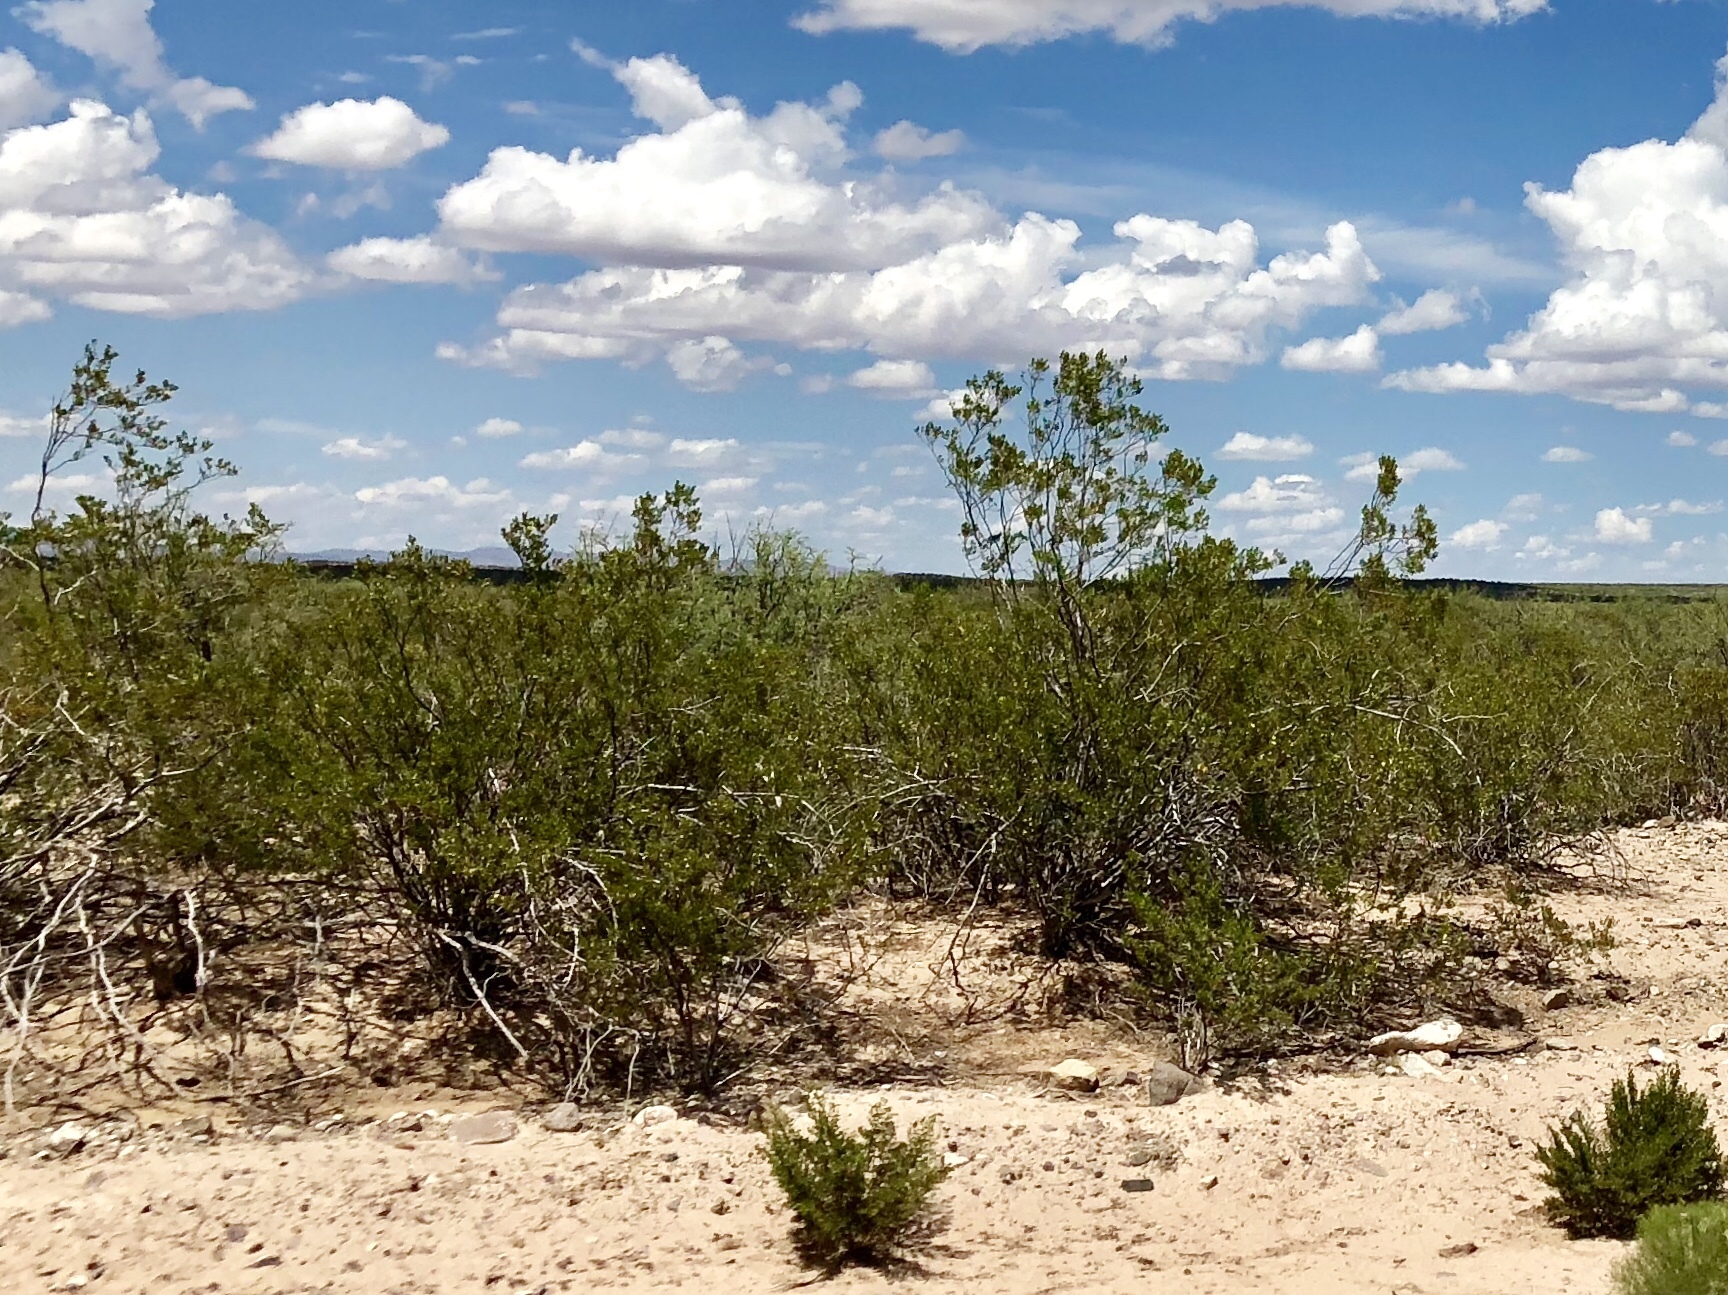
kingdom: Plantae
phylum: Tracheophyta
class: Magnoliopsida
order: Zygophyllales
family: Zygophyllaceae
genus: Larrea
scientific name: Larrea tridentata
